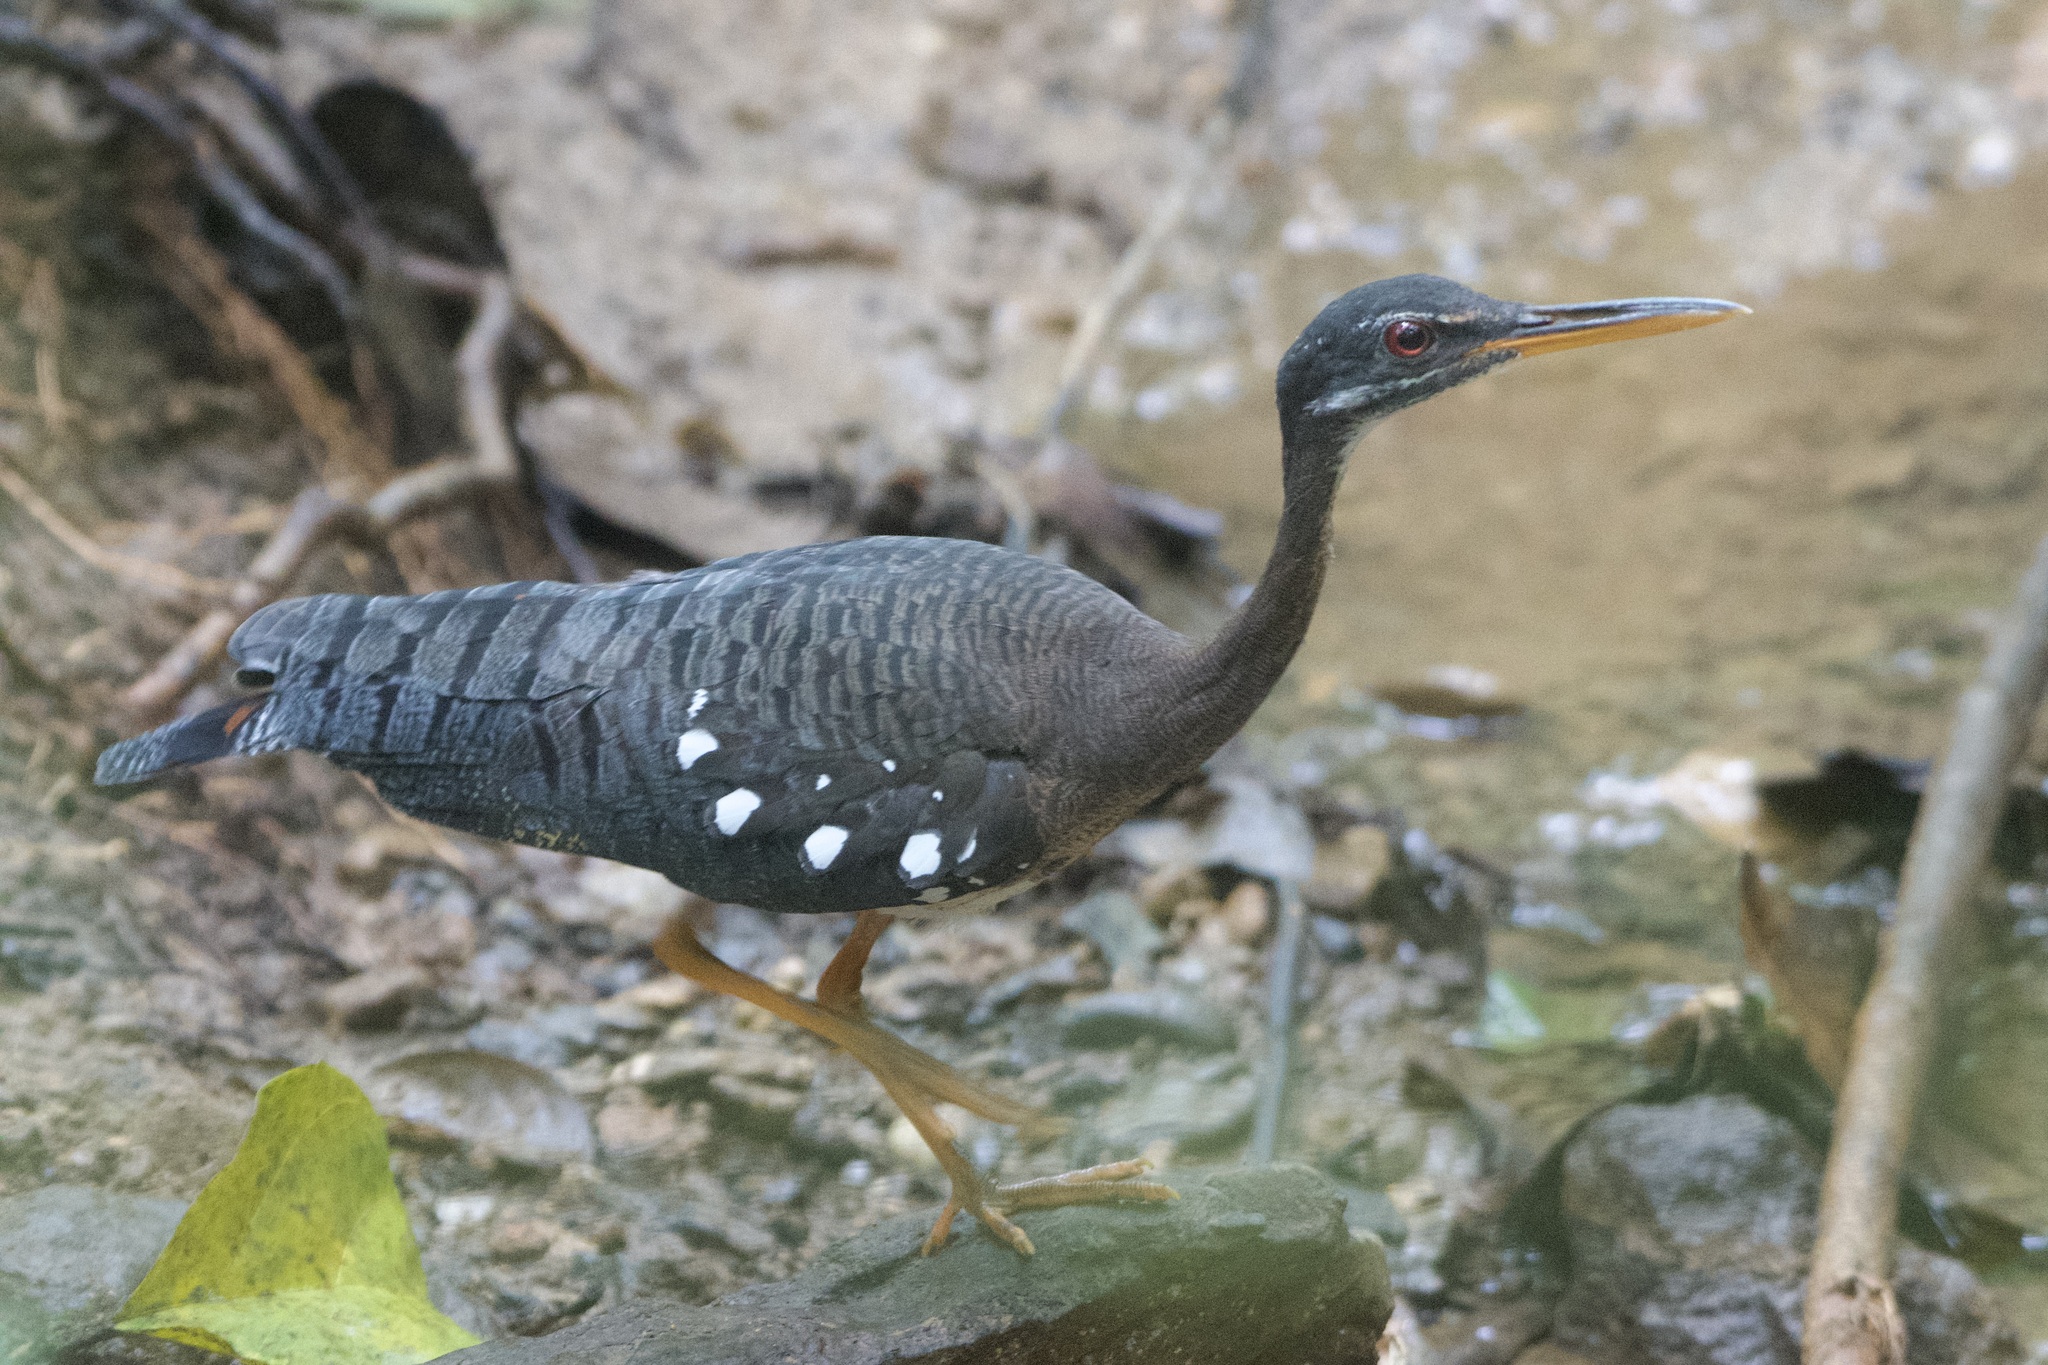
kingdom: Animalia
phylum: Chordata
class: Aves
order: Eurypygiformes
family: Eurypygidae
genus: Eurypyga
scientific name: Eurypyga helias
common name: Sunbittern
